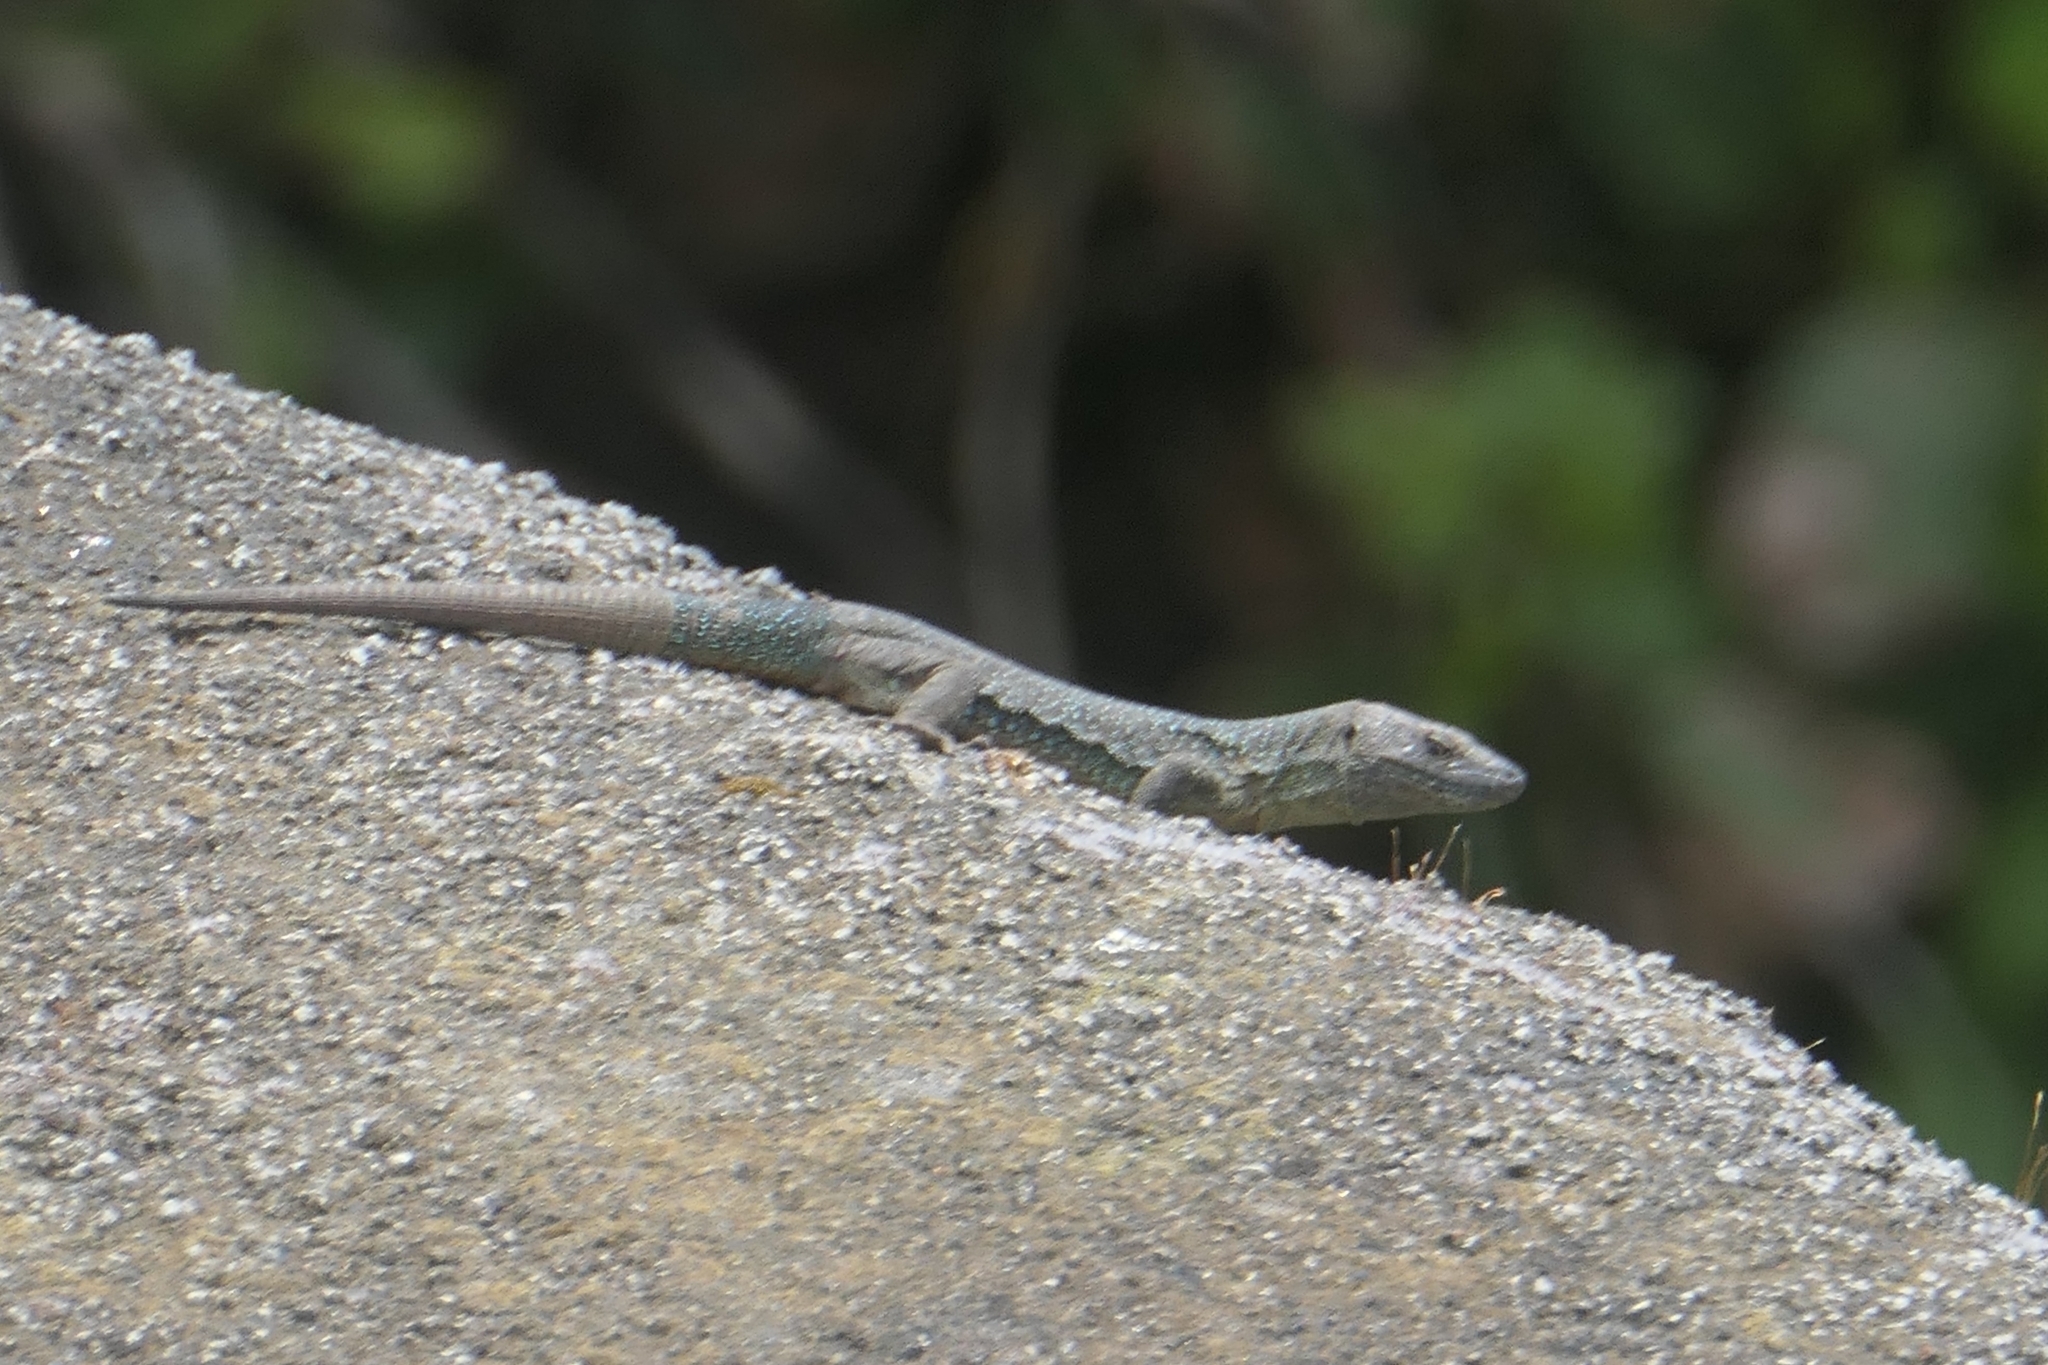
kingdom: Animalia
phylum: Chordata
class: Squamata
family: Lacertidae
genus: Teira
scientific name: Teira dugesii
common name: Madeira lizard
